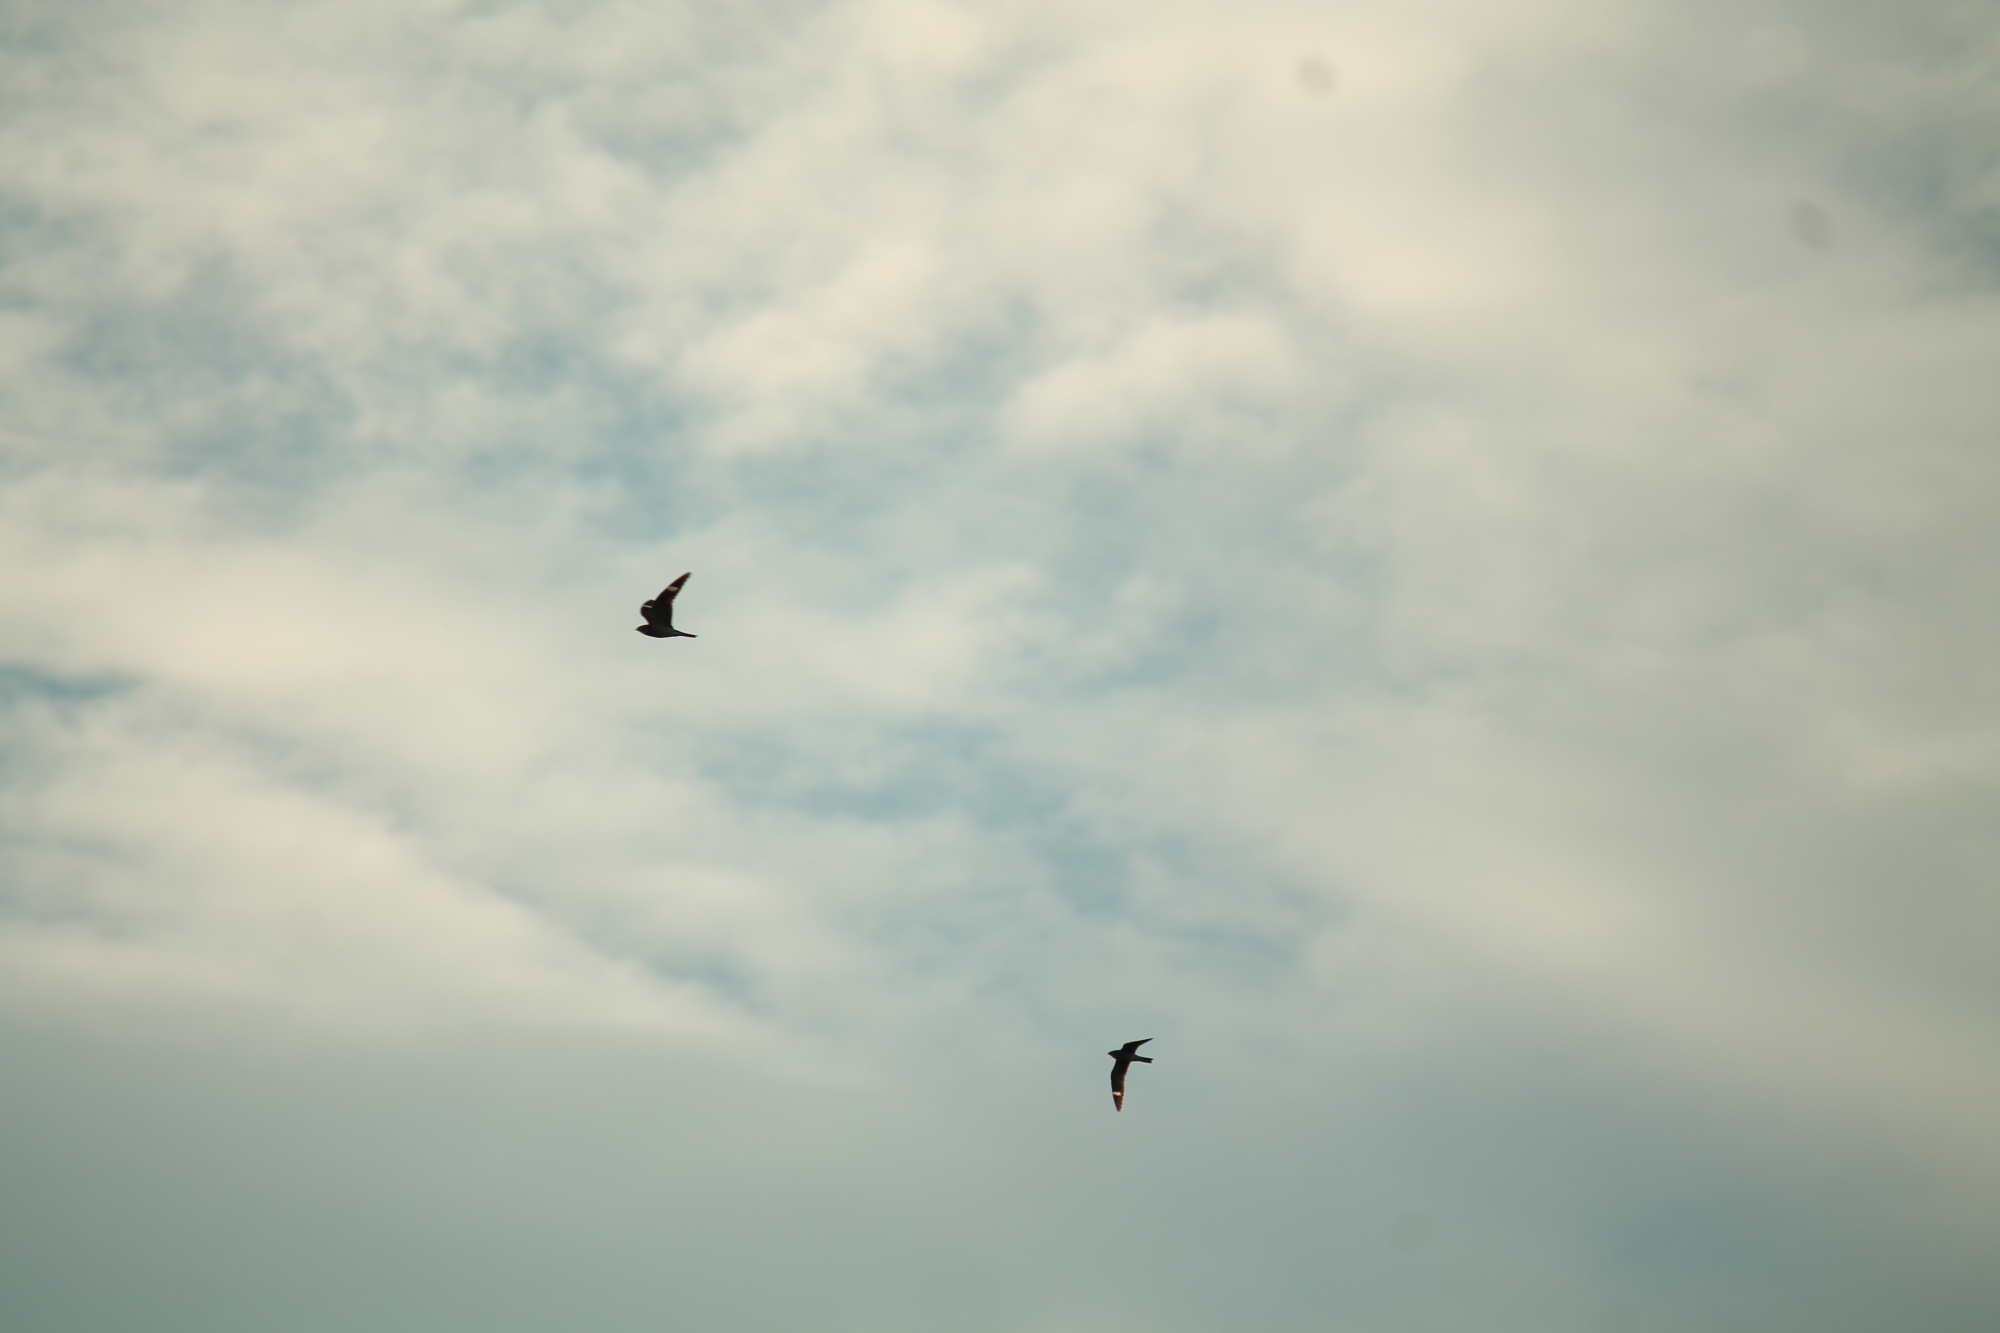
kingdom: Animalia
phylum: Chordata
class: Aves
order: Caprimulgiformes
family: Caprimulgidae
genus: Chordeiles
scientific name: Chordeiles minor
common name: Common nighthawk
